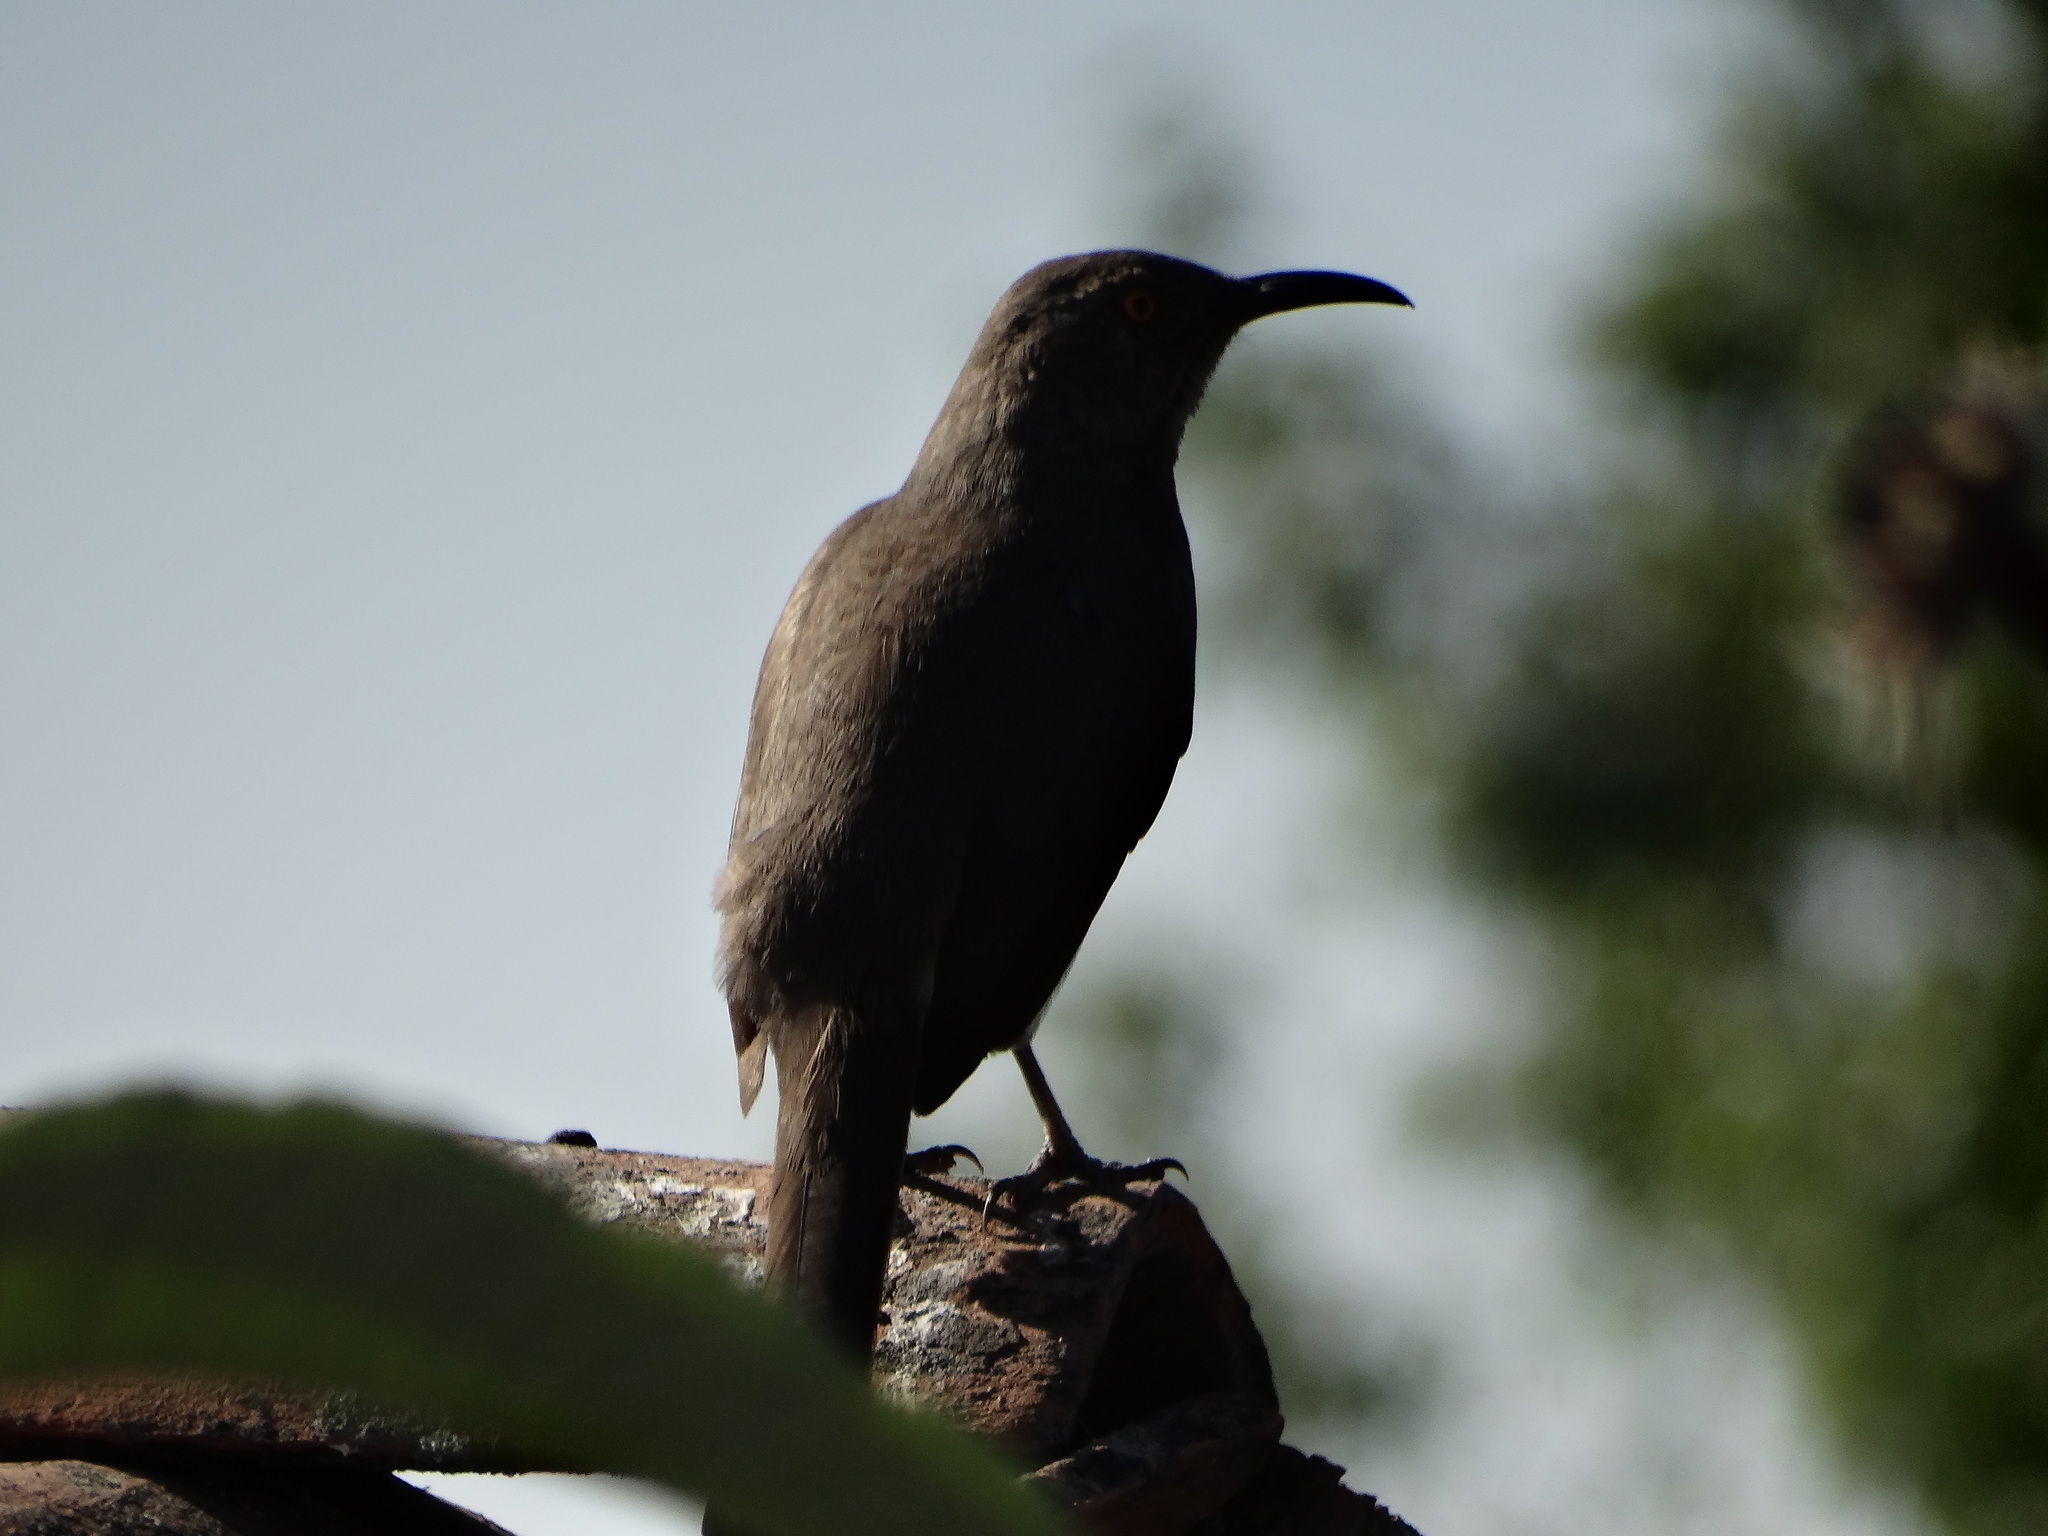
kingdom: Animalia
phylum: Chordata
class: Aves
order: Passeriformes
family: Mimidae
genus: Toxostoma
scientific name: Toxostoma curvirostre
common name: Curve-billed thrasher
